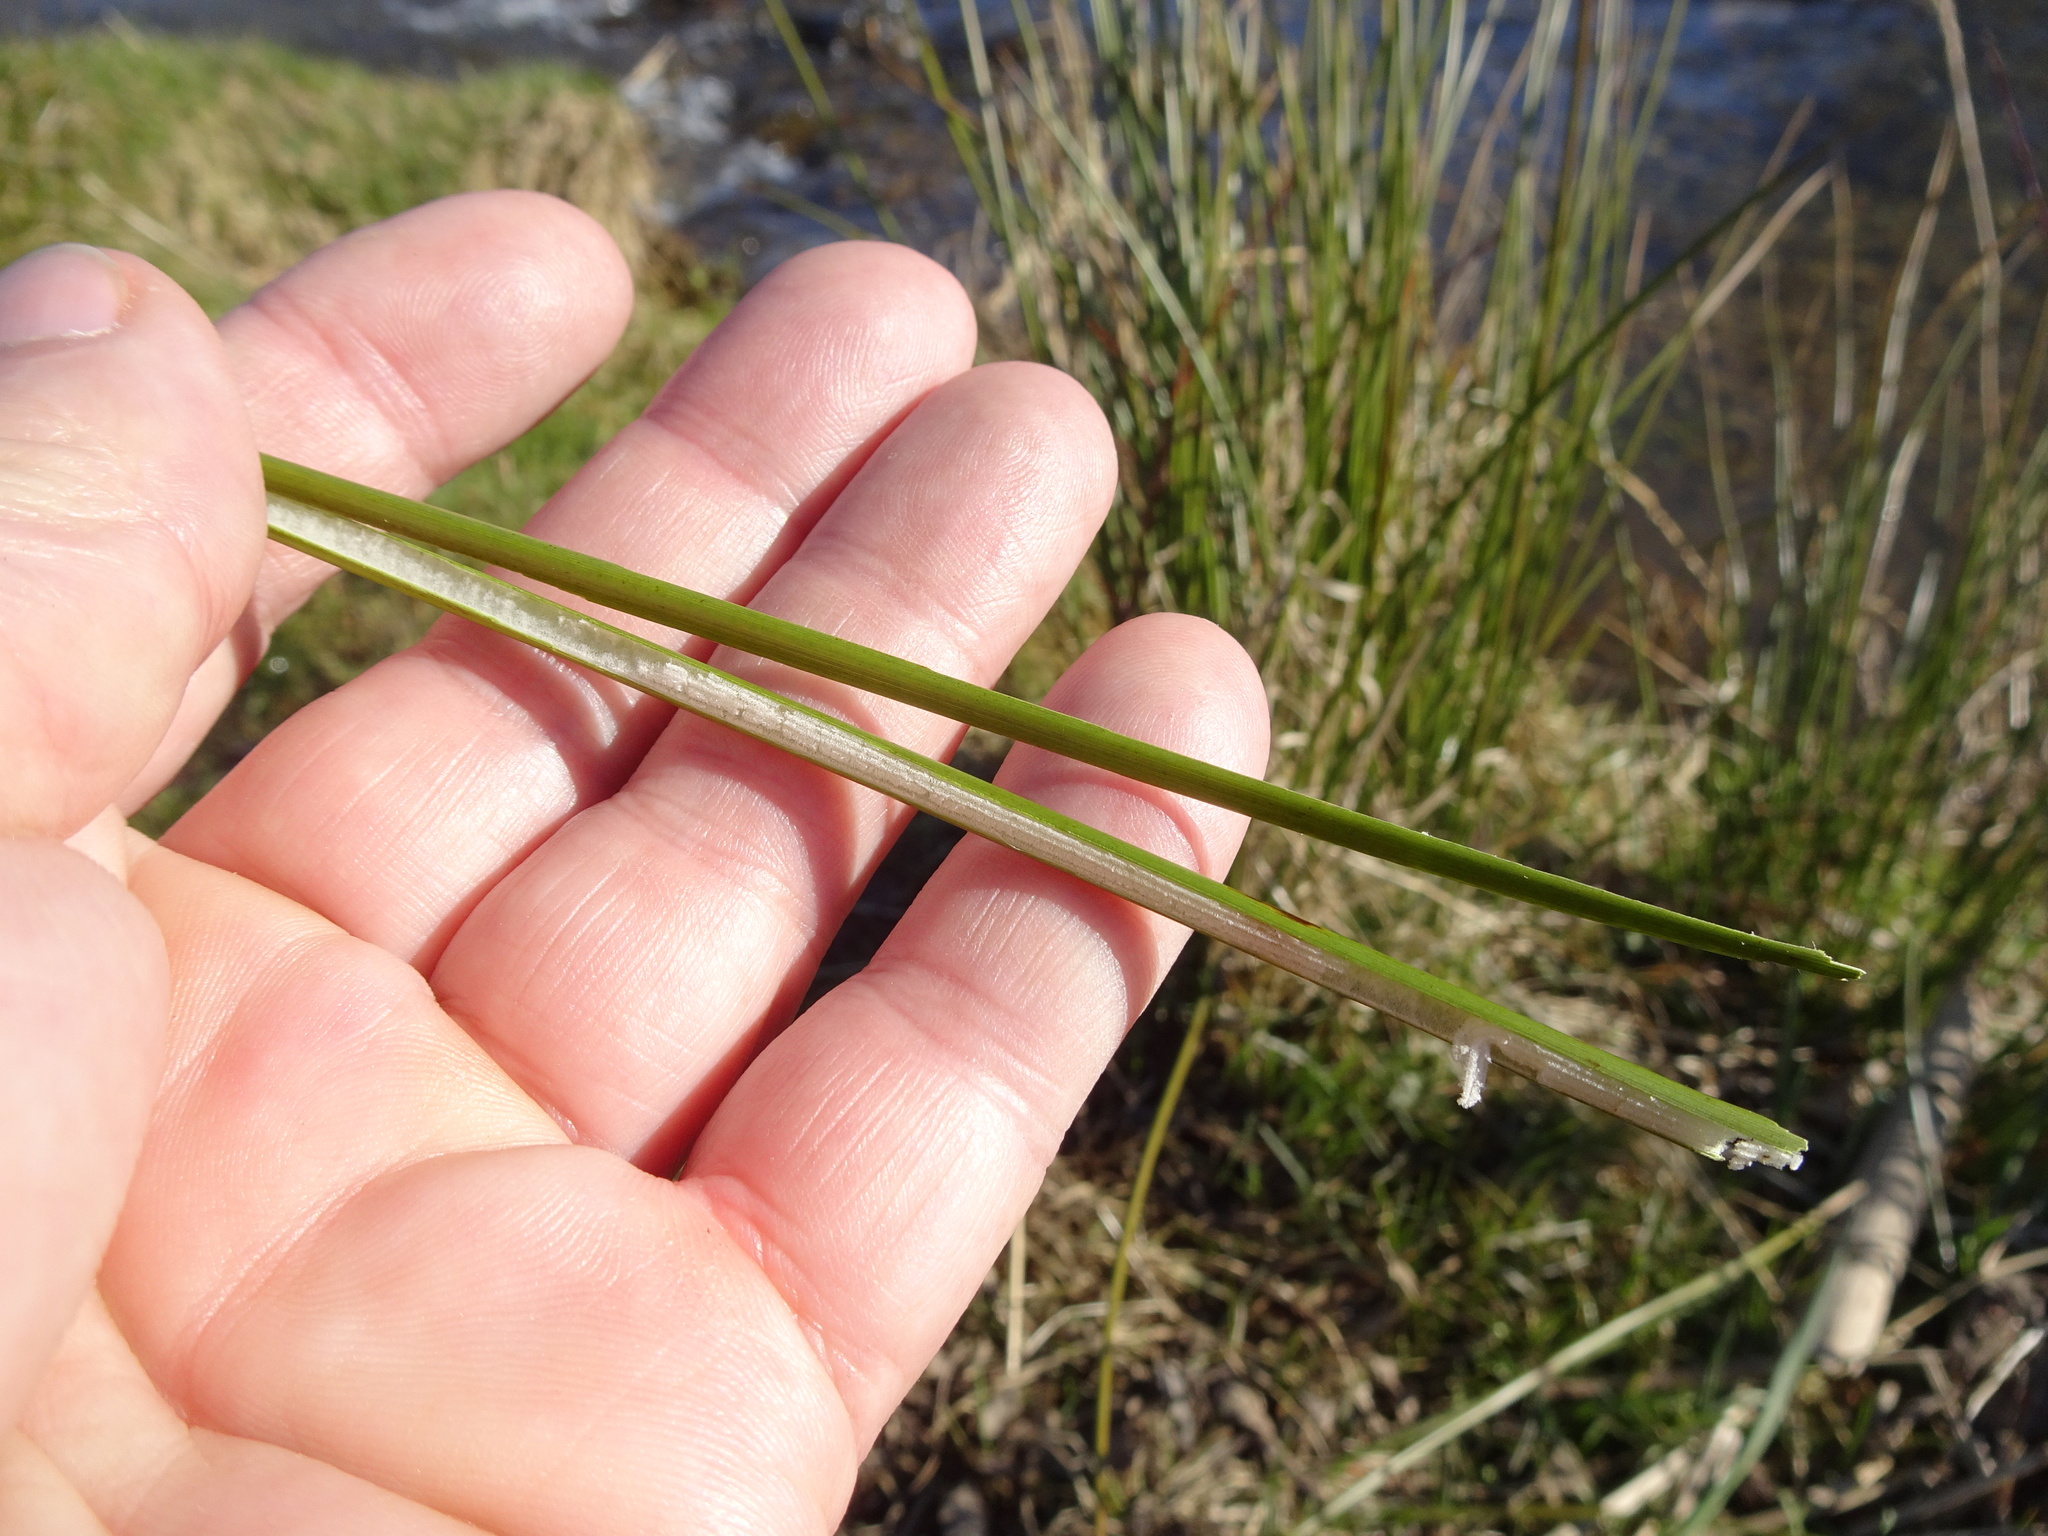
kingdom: Plantae
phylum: Tracheophyta
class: Liliopsida
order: Poales
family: Juncaceae
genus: Juncus
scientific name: Juncus effusus
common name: Soft rush
